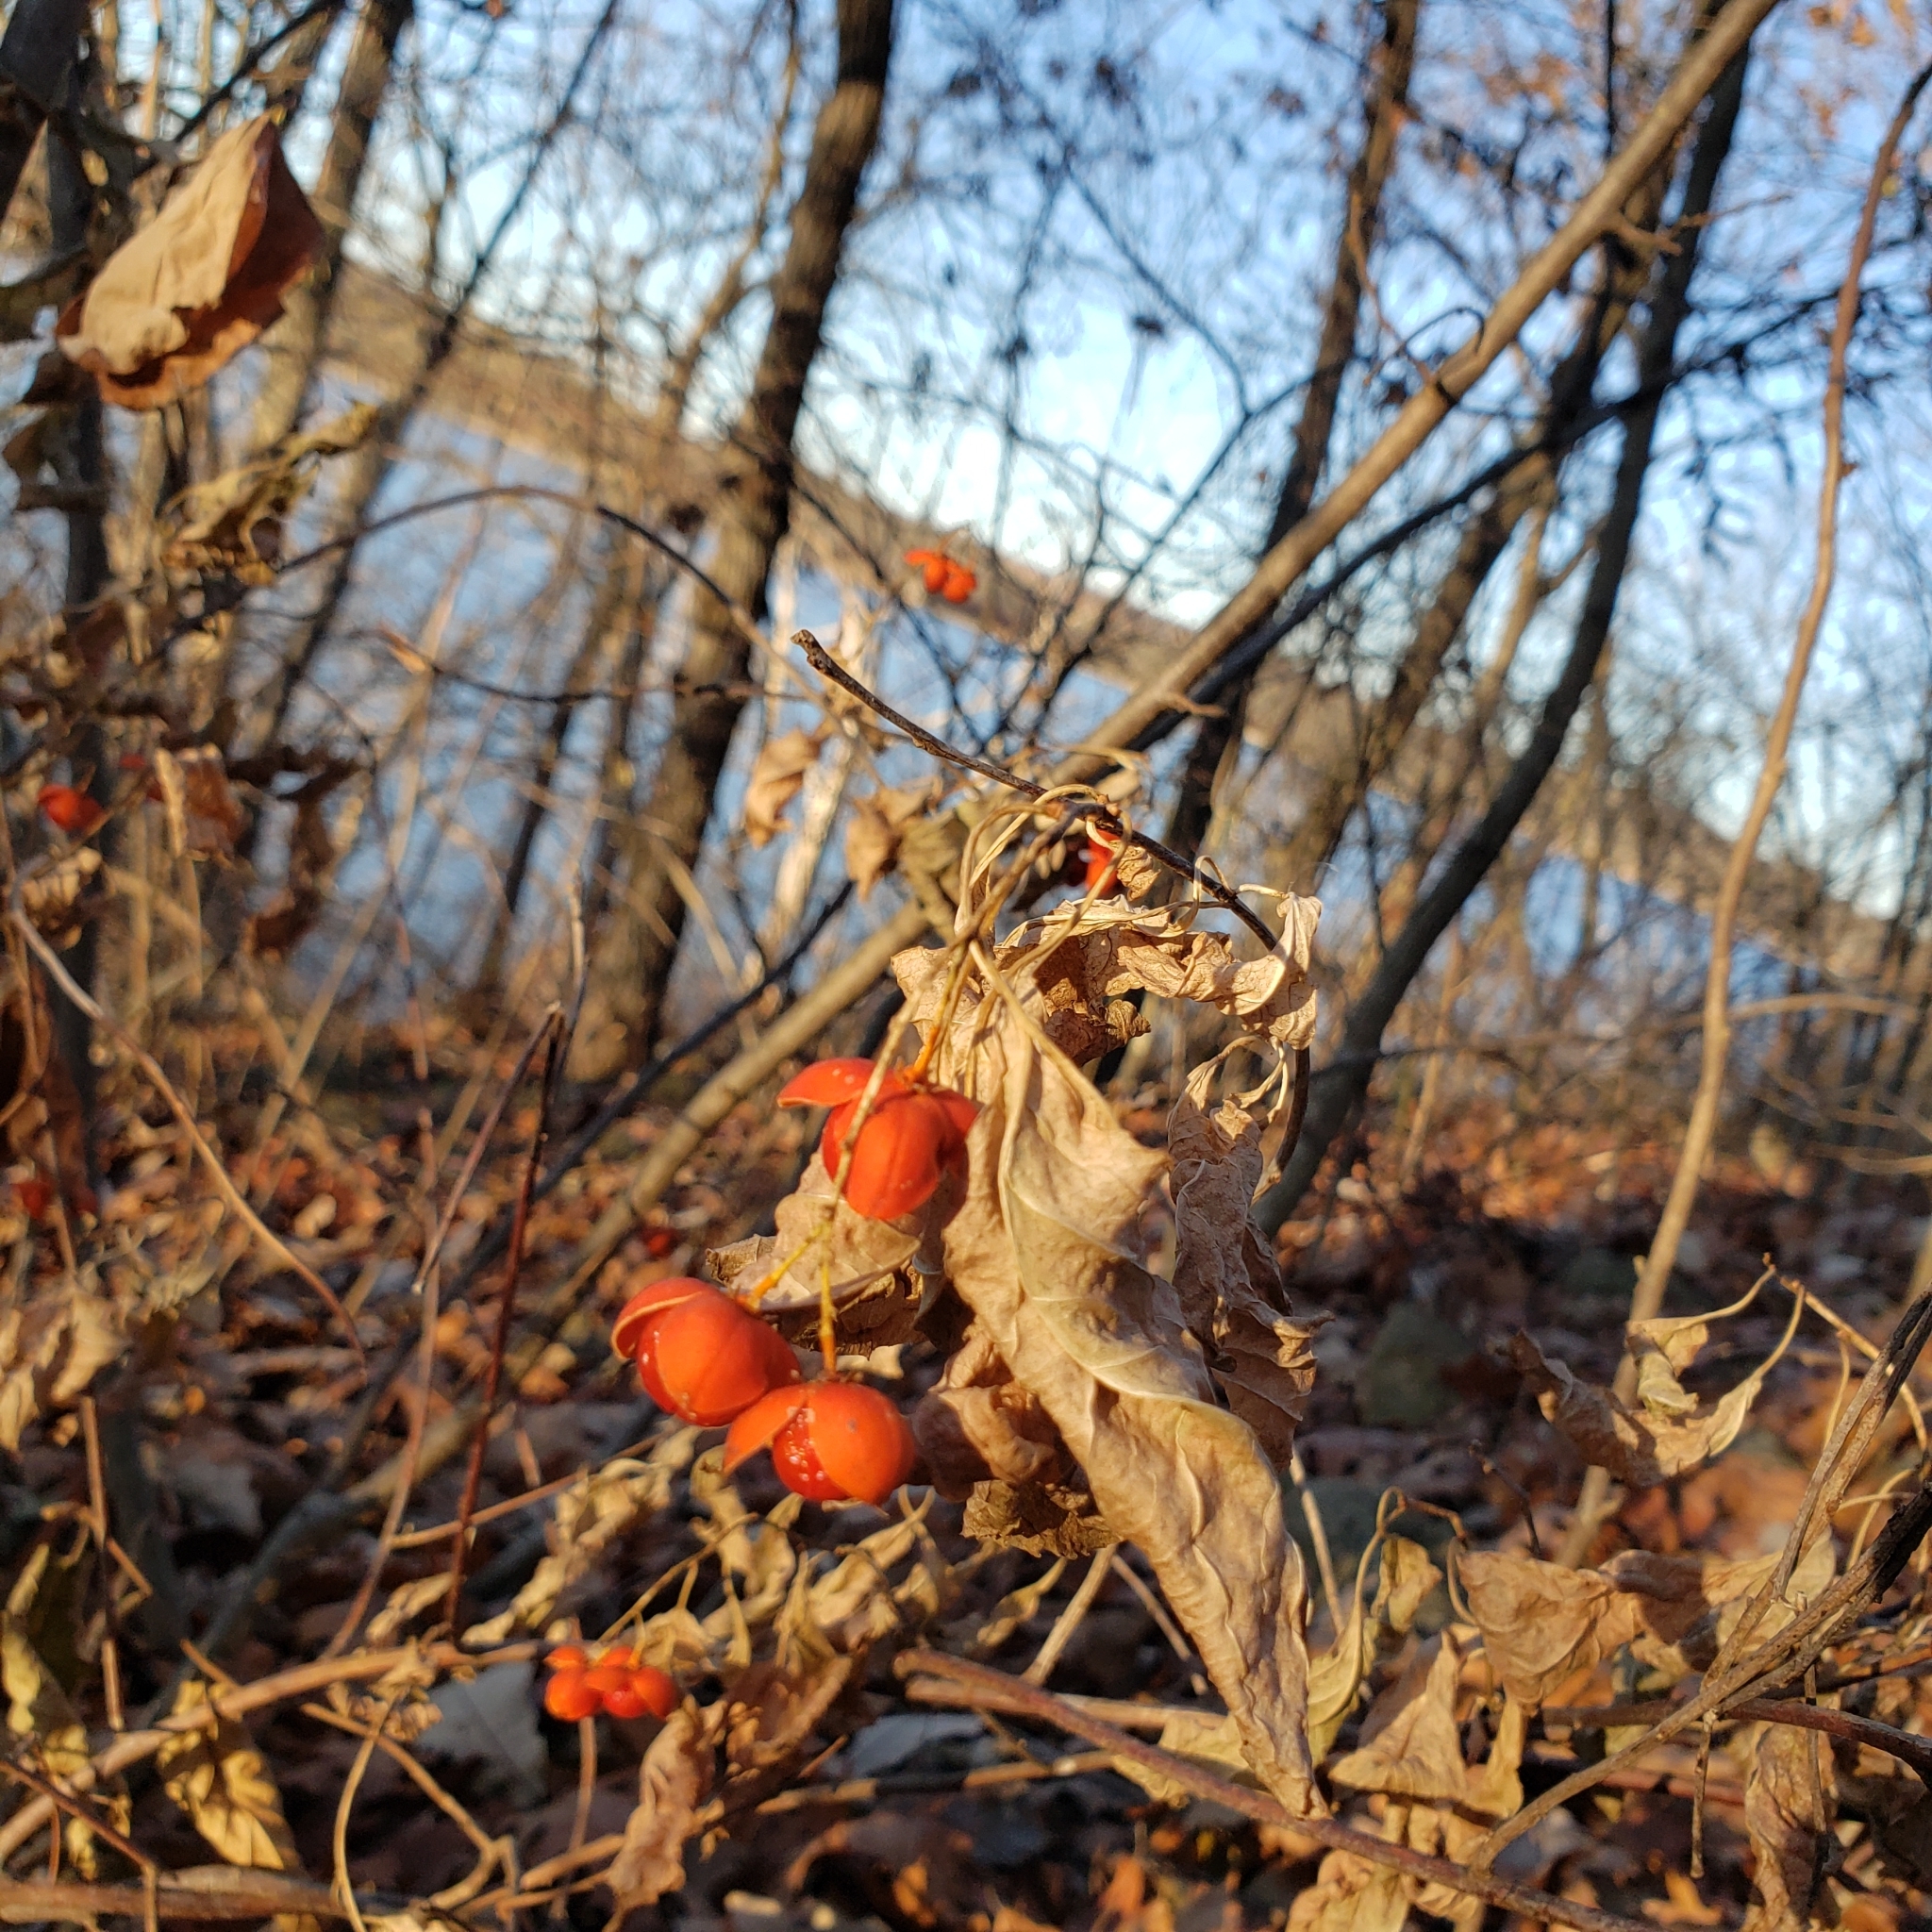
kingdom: Plantae
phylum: Tracheophyta
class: Magnoliopsida
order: Celastrales
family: Celastraceae
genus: Celastrus
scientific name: Celastrus scandens
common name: American bittersweet
